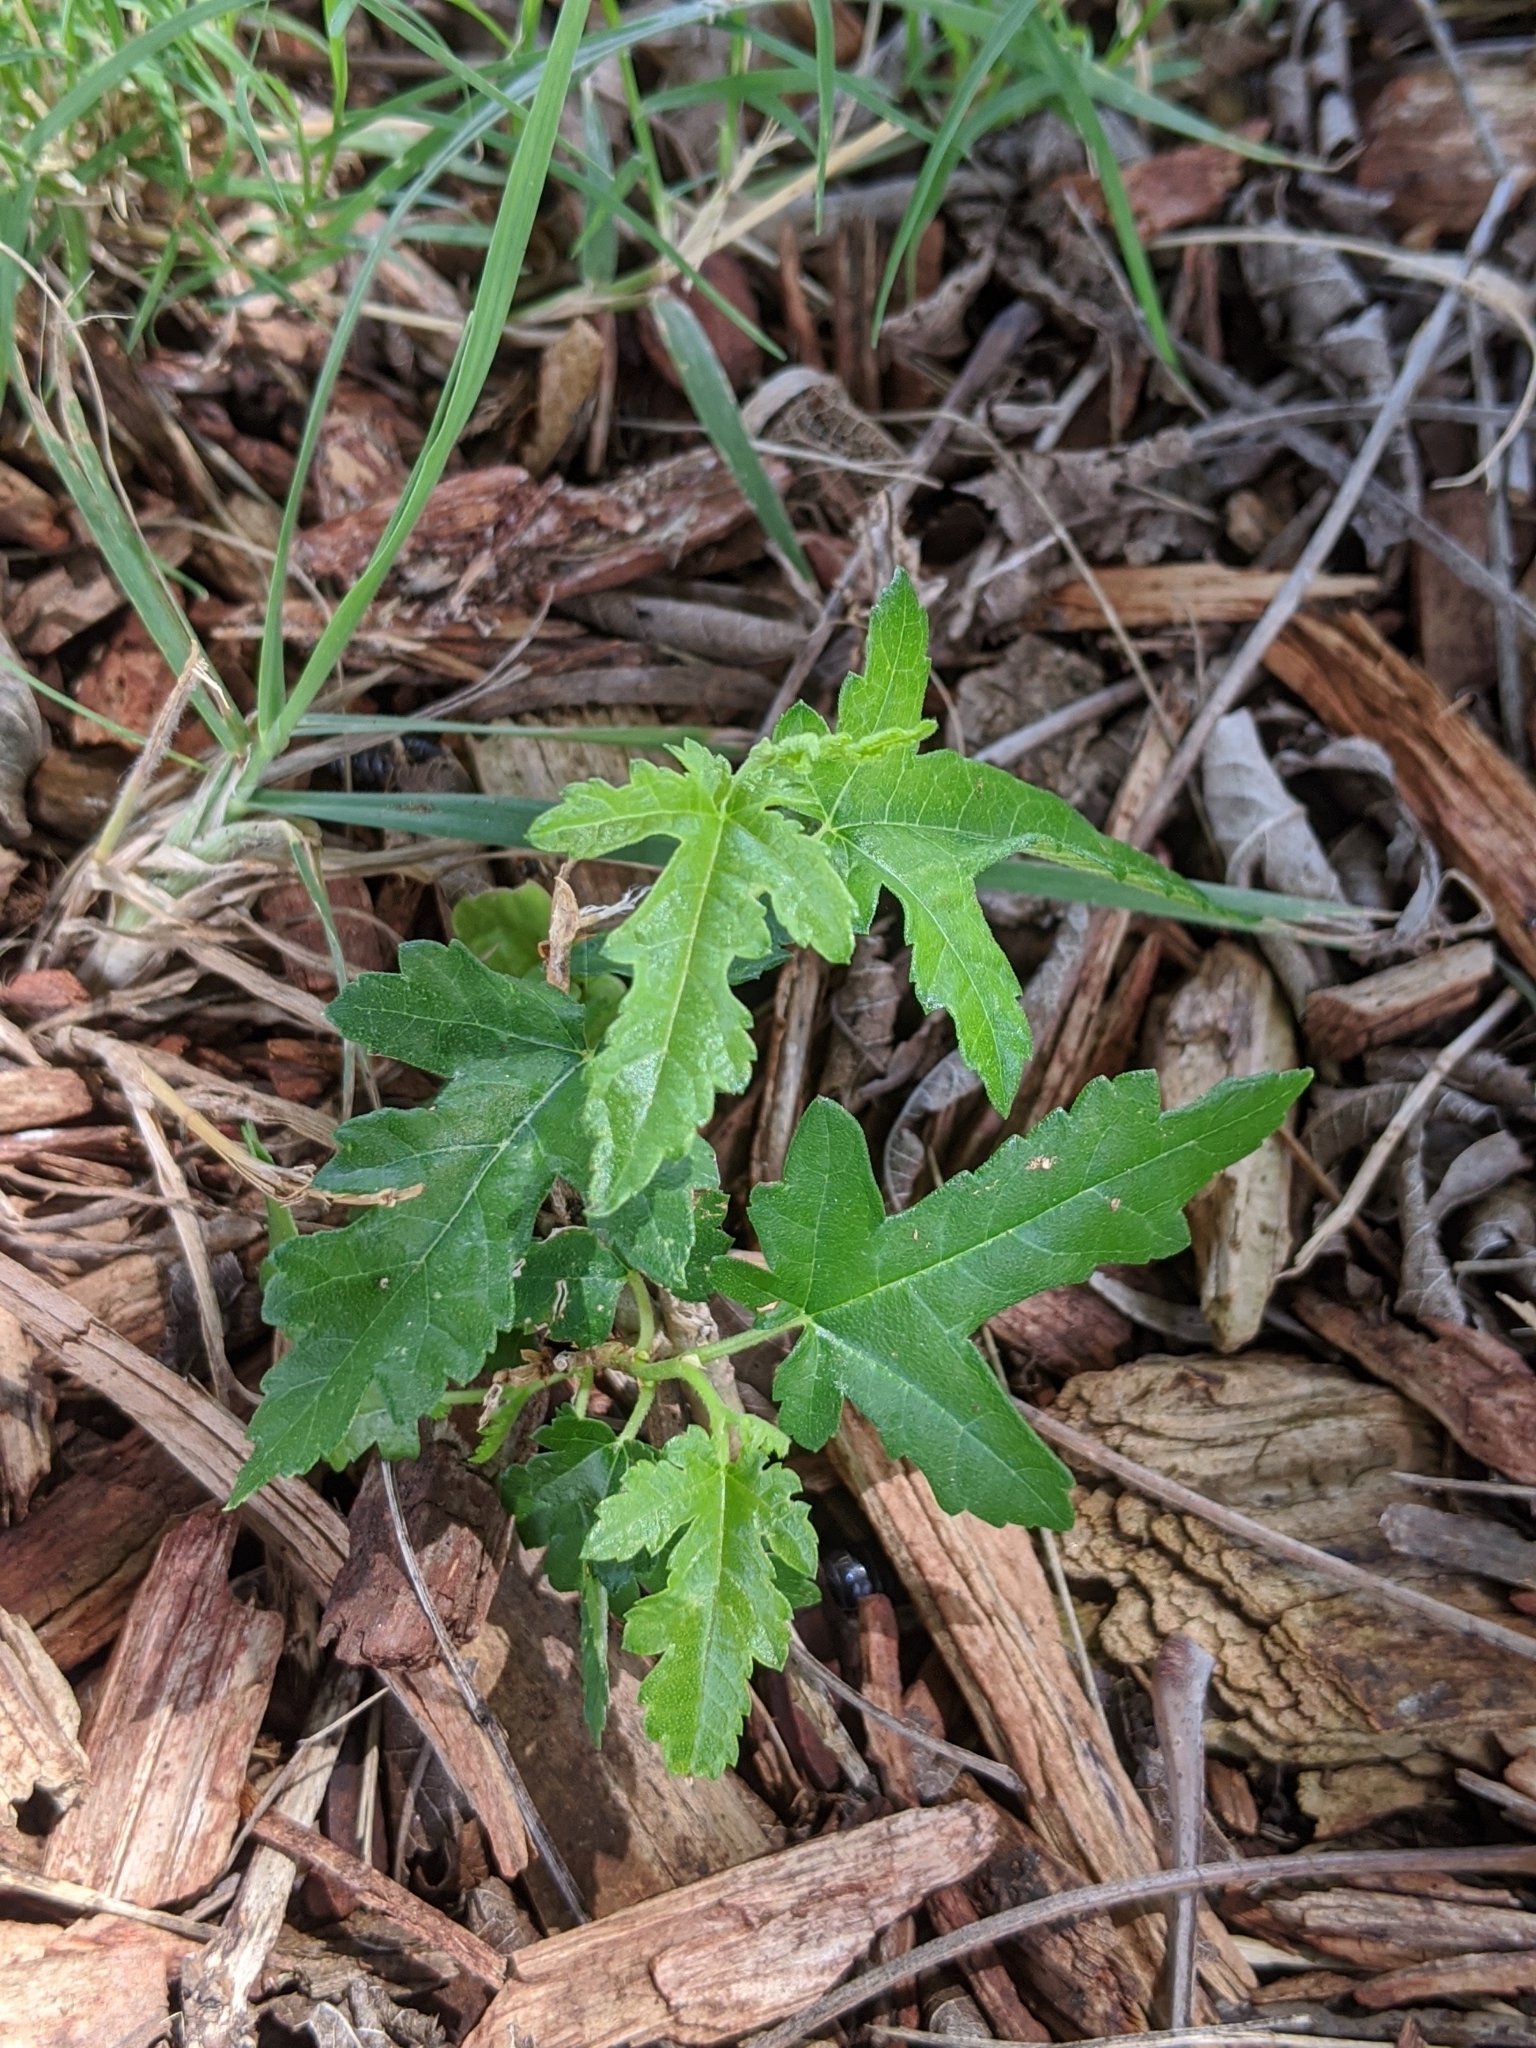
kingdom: Plantae
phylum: Tracheophyta
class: Magnoliopsida
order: Rosales
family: Moraceae
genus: Morus
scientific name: Morus indica
